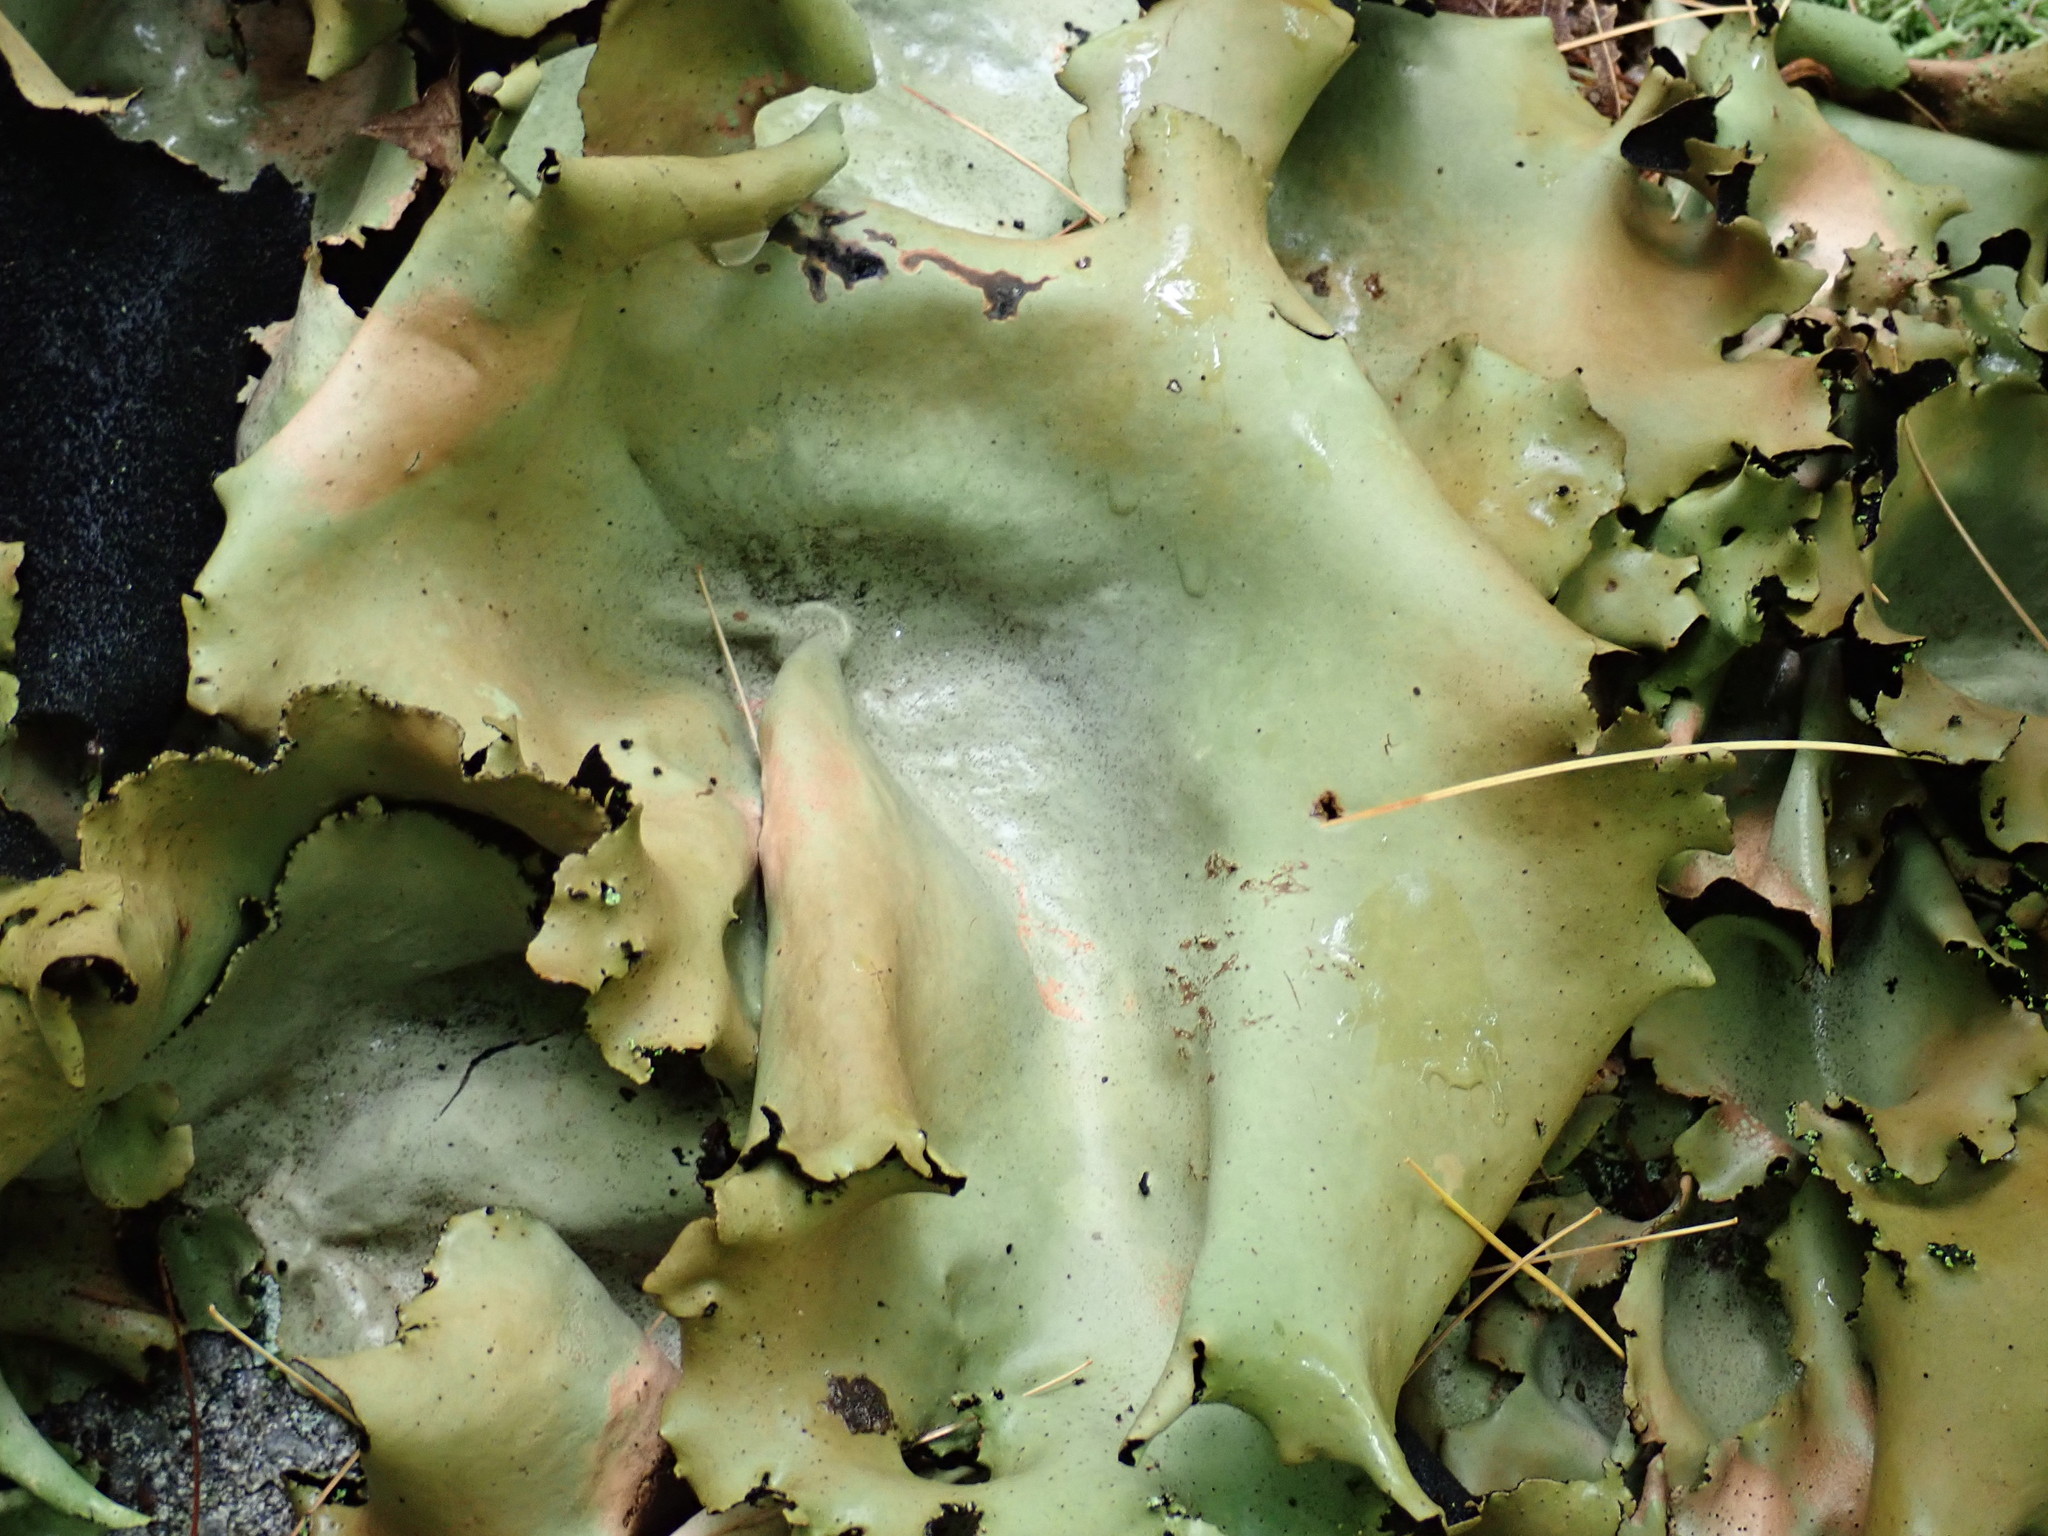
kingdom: Fungi
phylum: Ascomycota
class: Lecanoromycetes
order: Umbilicariales
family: Umbilicariaceae
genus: Umbilicaria
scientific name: Umbilicaria mammulata
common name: Smooth rock tripe
